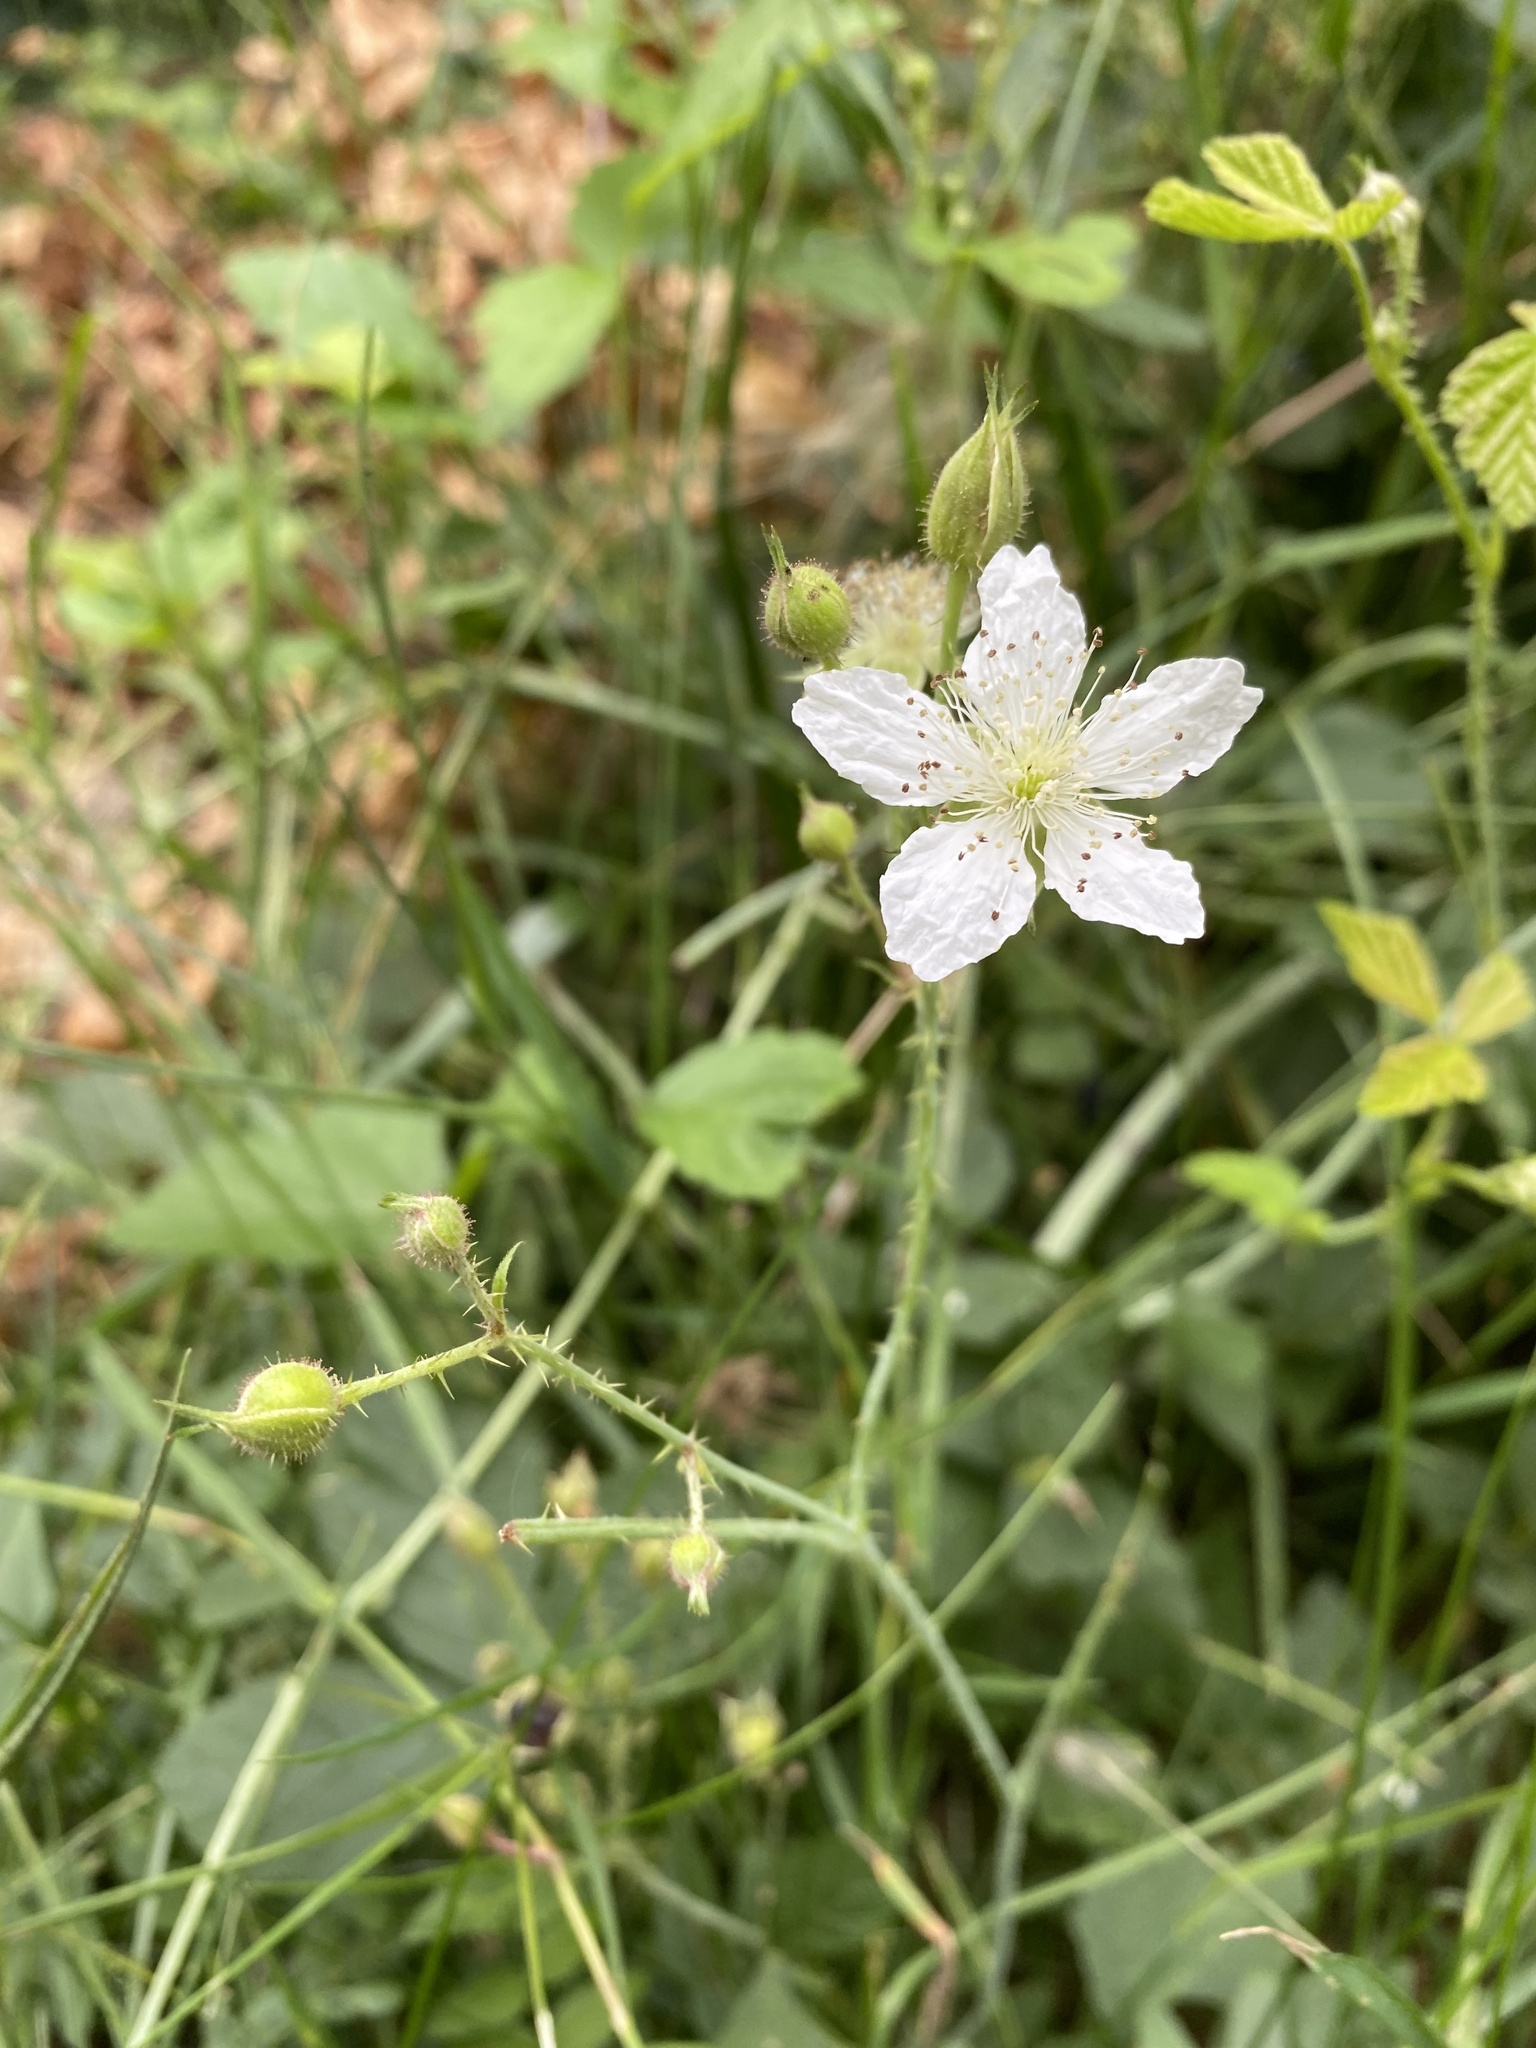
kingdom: Plantae
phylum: Tracheophyta
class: Magnoliopsida
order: Rosales
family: Rosaceae
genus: Rubus
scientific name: Rubus caesius
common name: Dewberry
